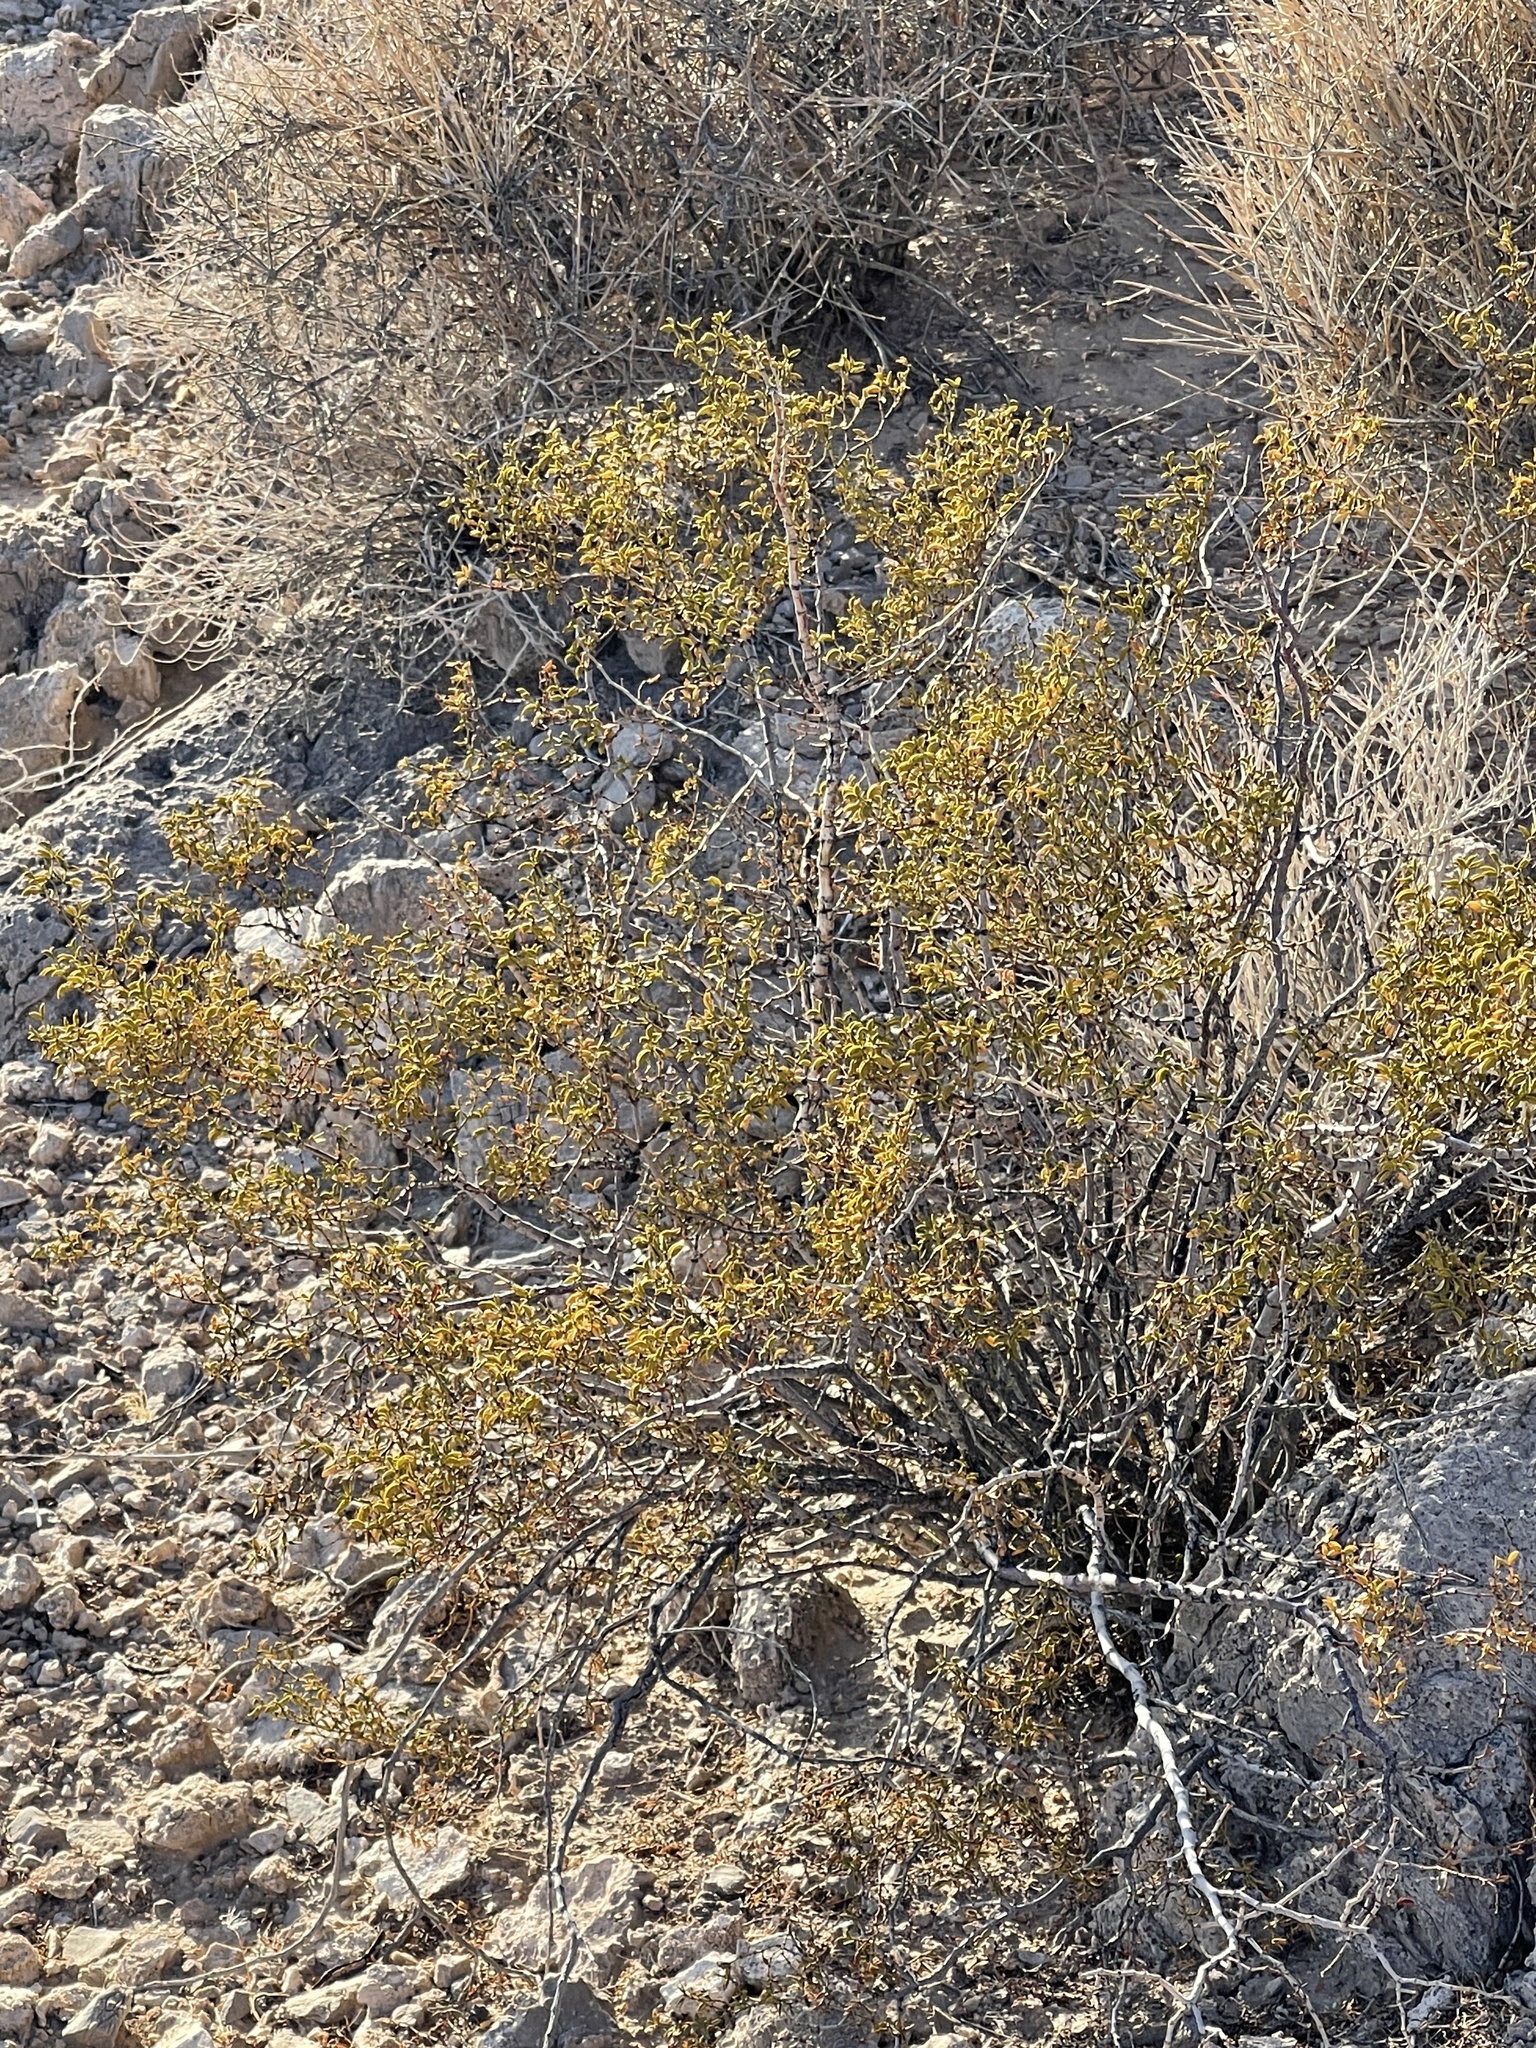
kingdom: Plantae
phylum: Tracheophyta
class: Magnoliopsida
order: Zygophyllales
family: Zygophyllaceae
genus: Larrea
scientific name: Larrea tridentata
